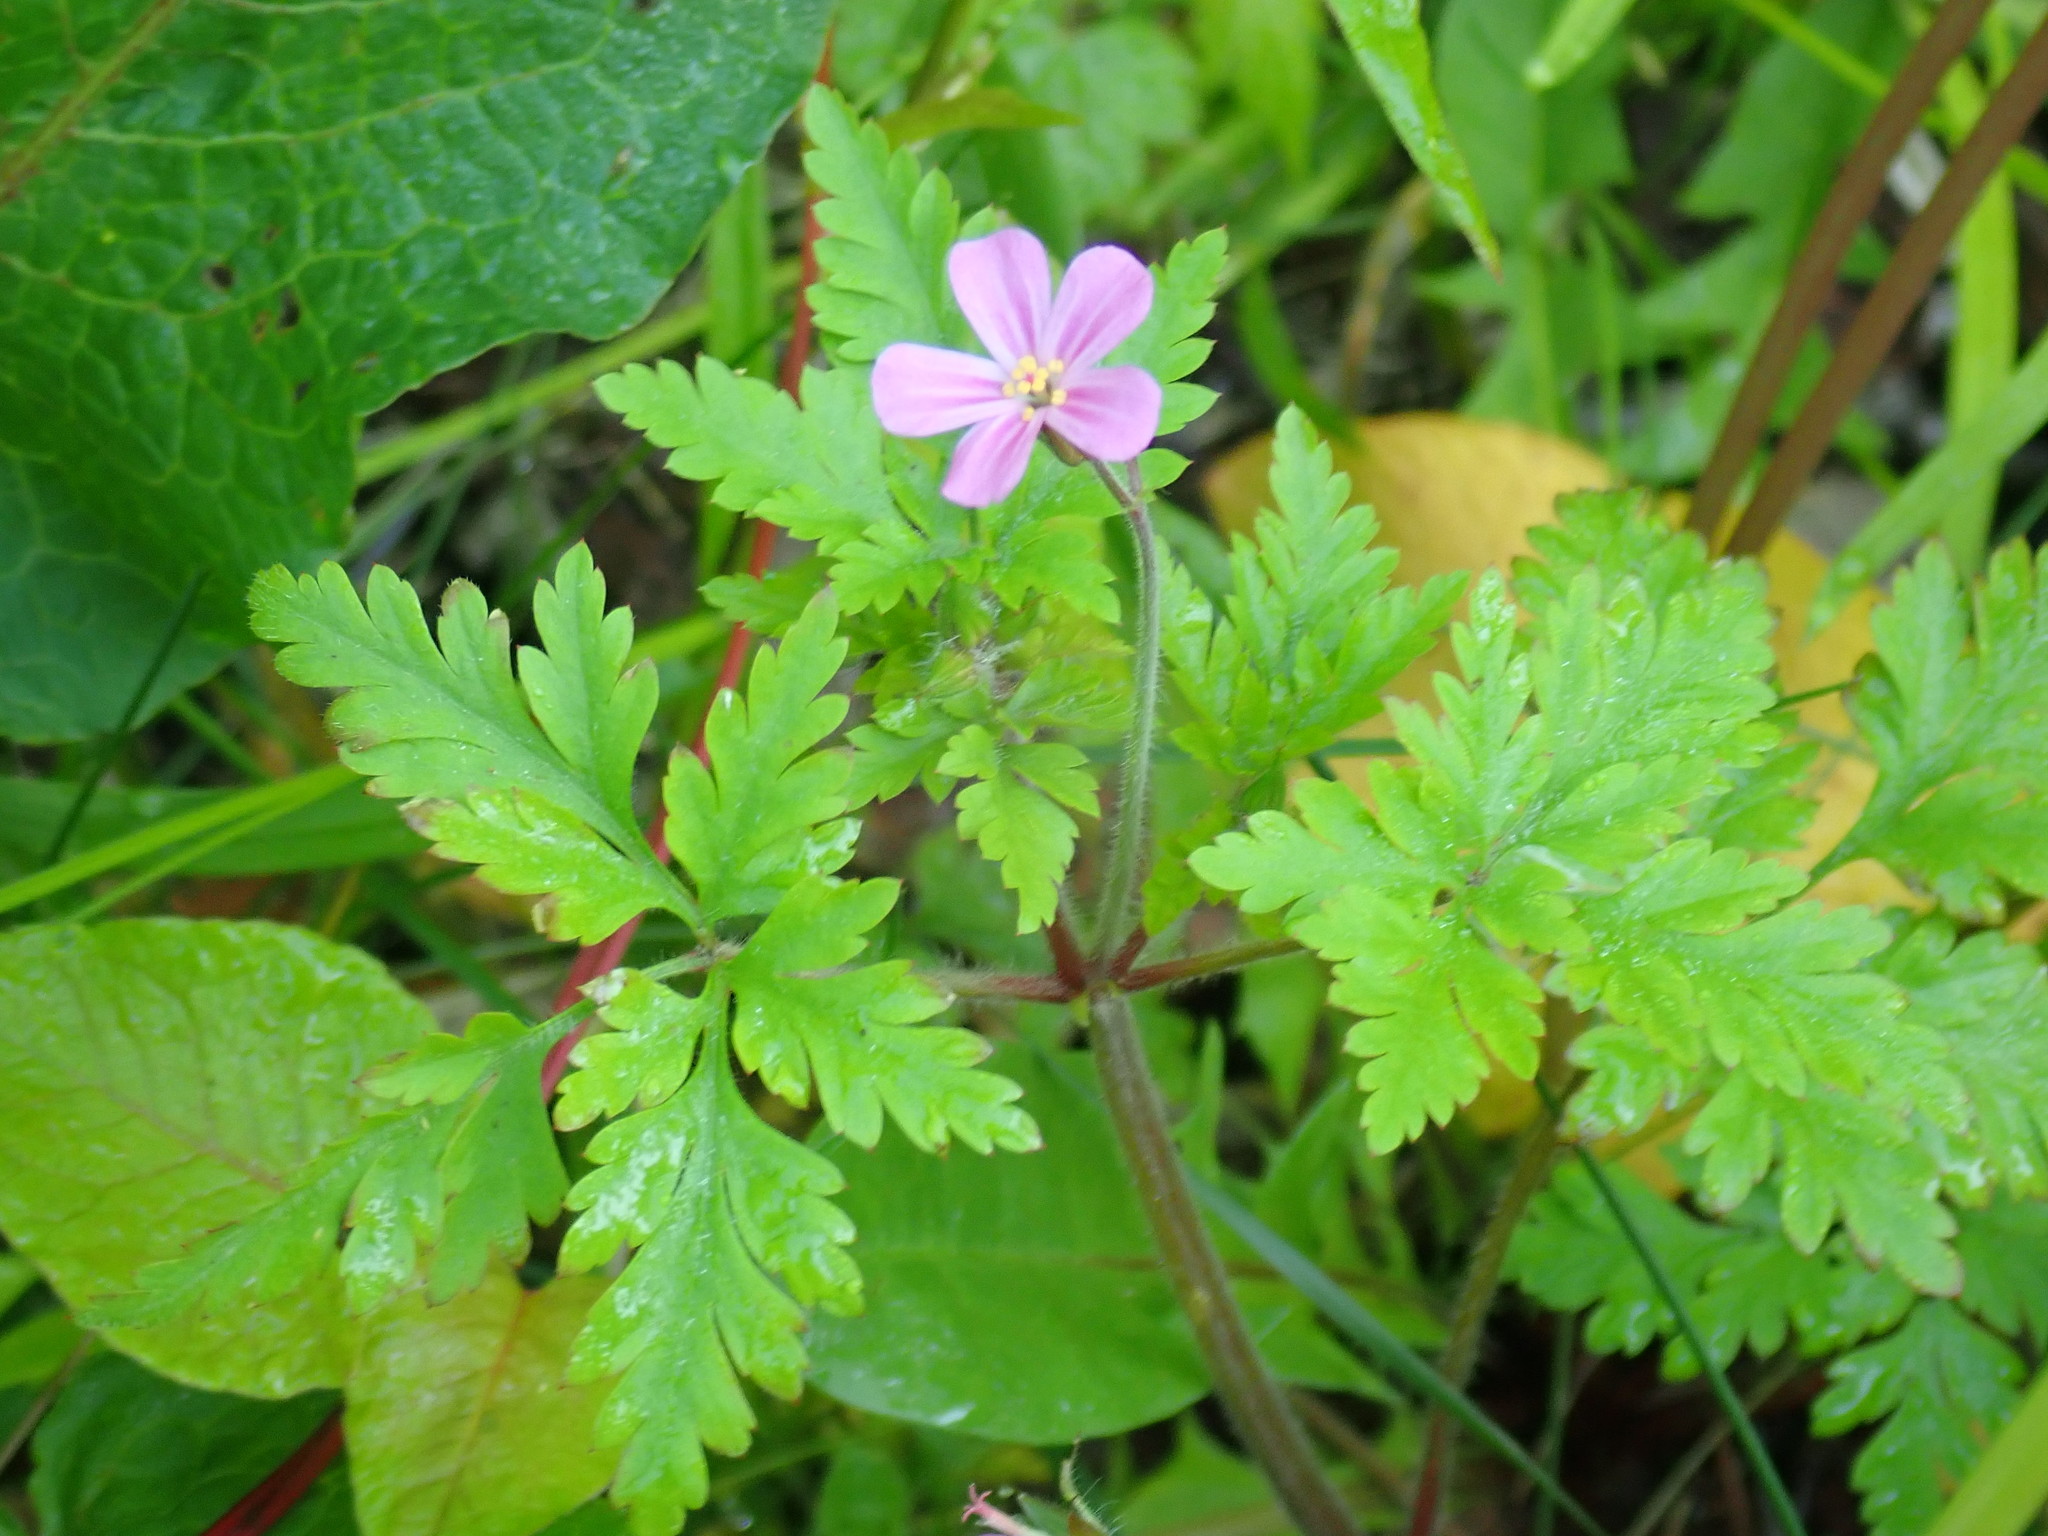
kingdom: Plantae
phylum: Tracheophyta
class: Magnoliopsida
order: Geraniales
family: Geraniaceae
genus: Geranium
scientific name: Geranium robertianum
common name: Herb-robert
